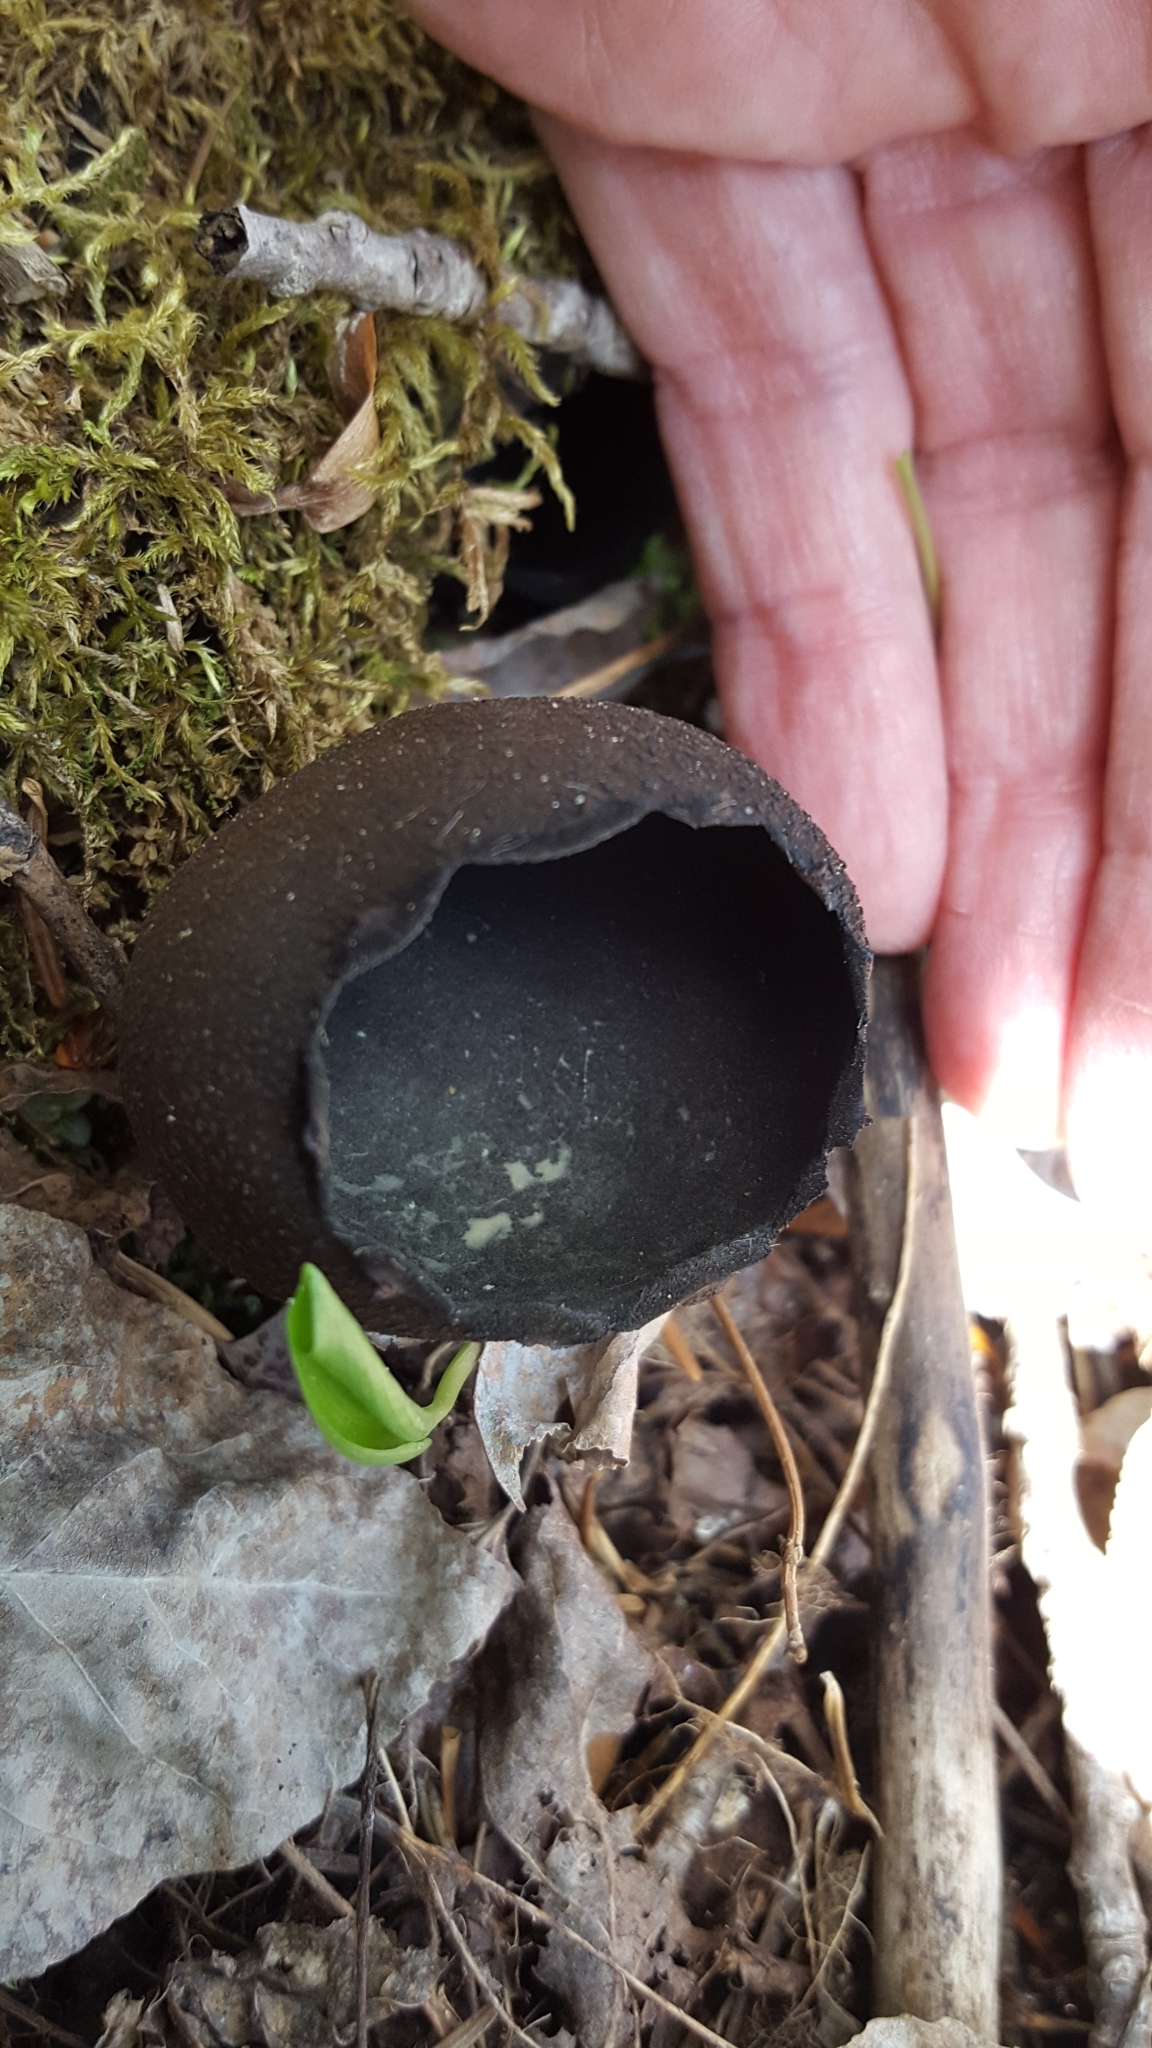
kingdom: Fungi
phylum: Ascomycota
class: Pezizomycetes
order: Pezizales
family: Sarcosomataceae
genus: Urnula
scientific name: Urnula craterium
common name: Devil's urn
